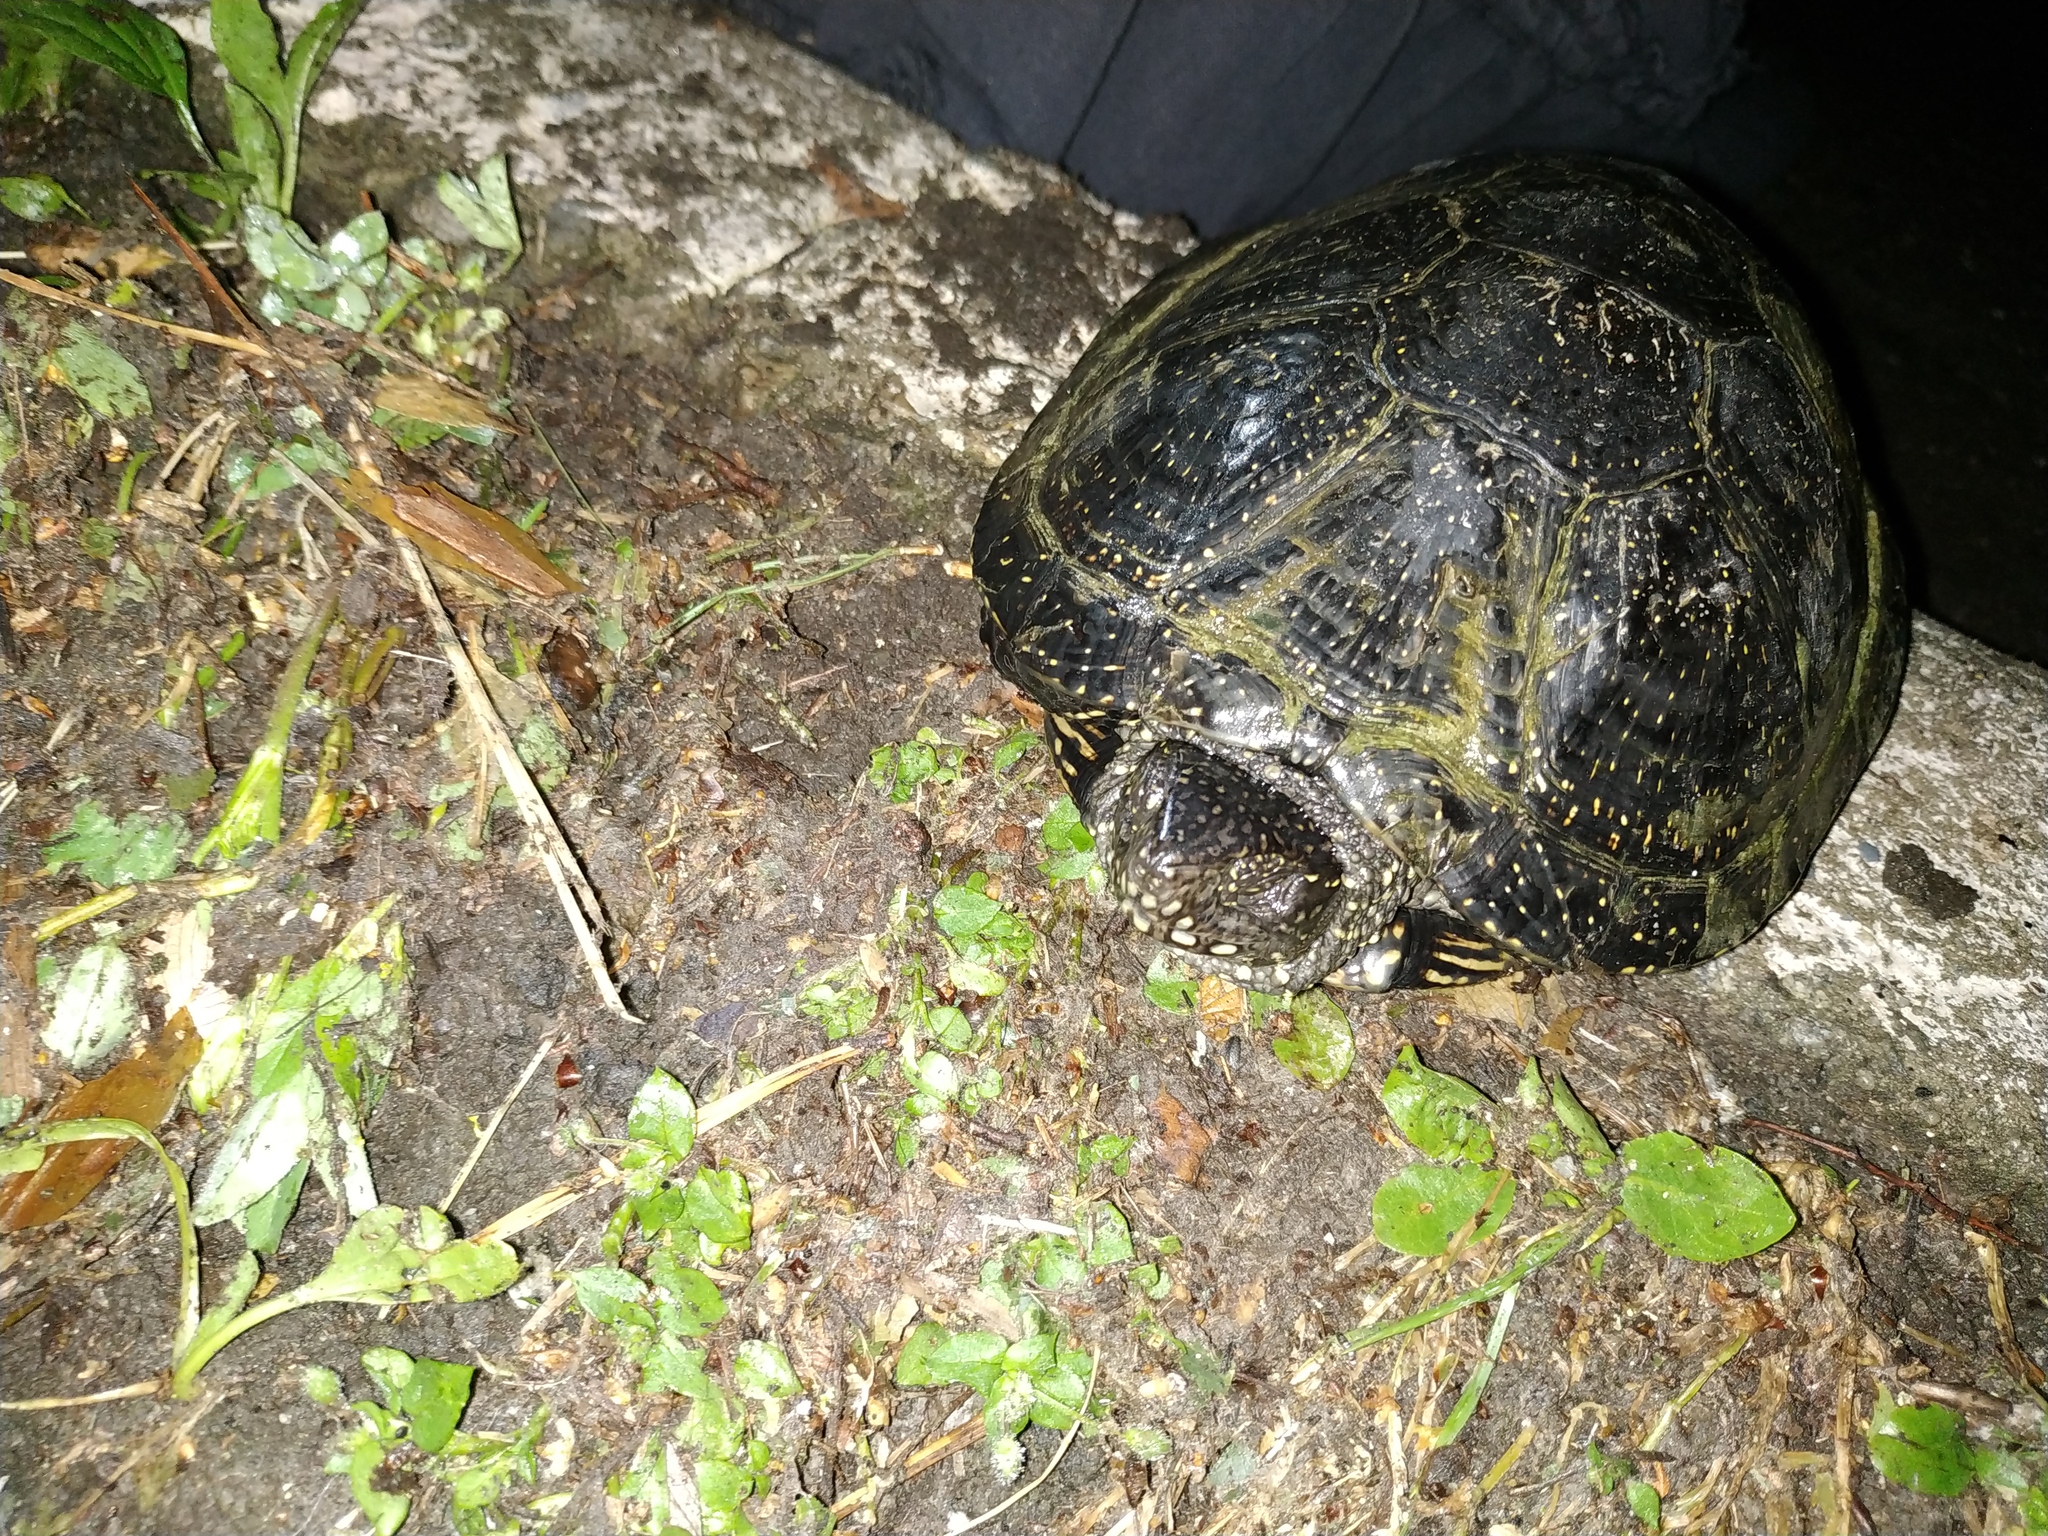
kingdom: Animalia
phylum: Chordata
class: Testudines
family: Emydidae
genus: Emys
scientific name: Emys orbicularis
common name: European pond turtle
